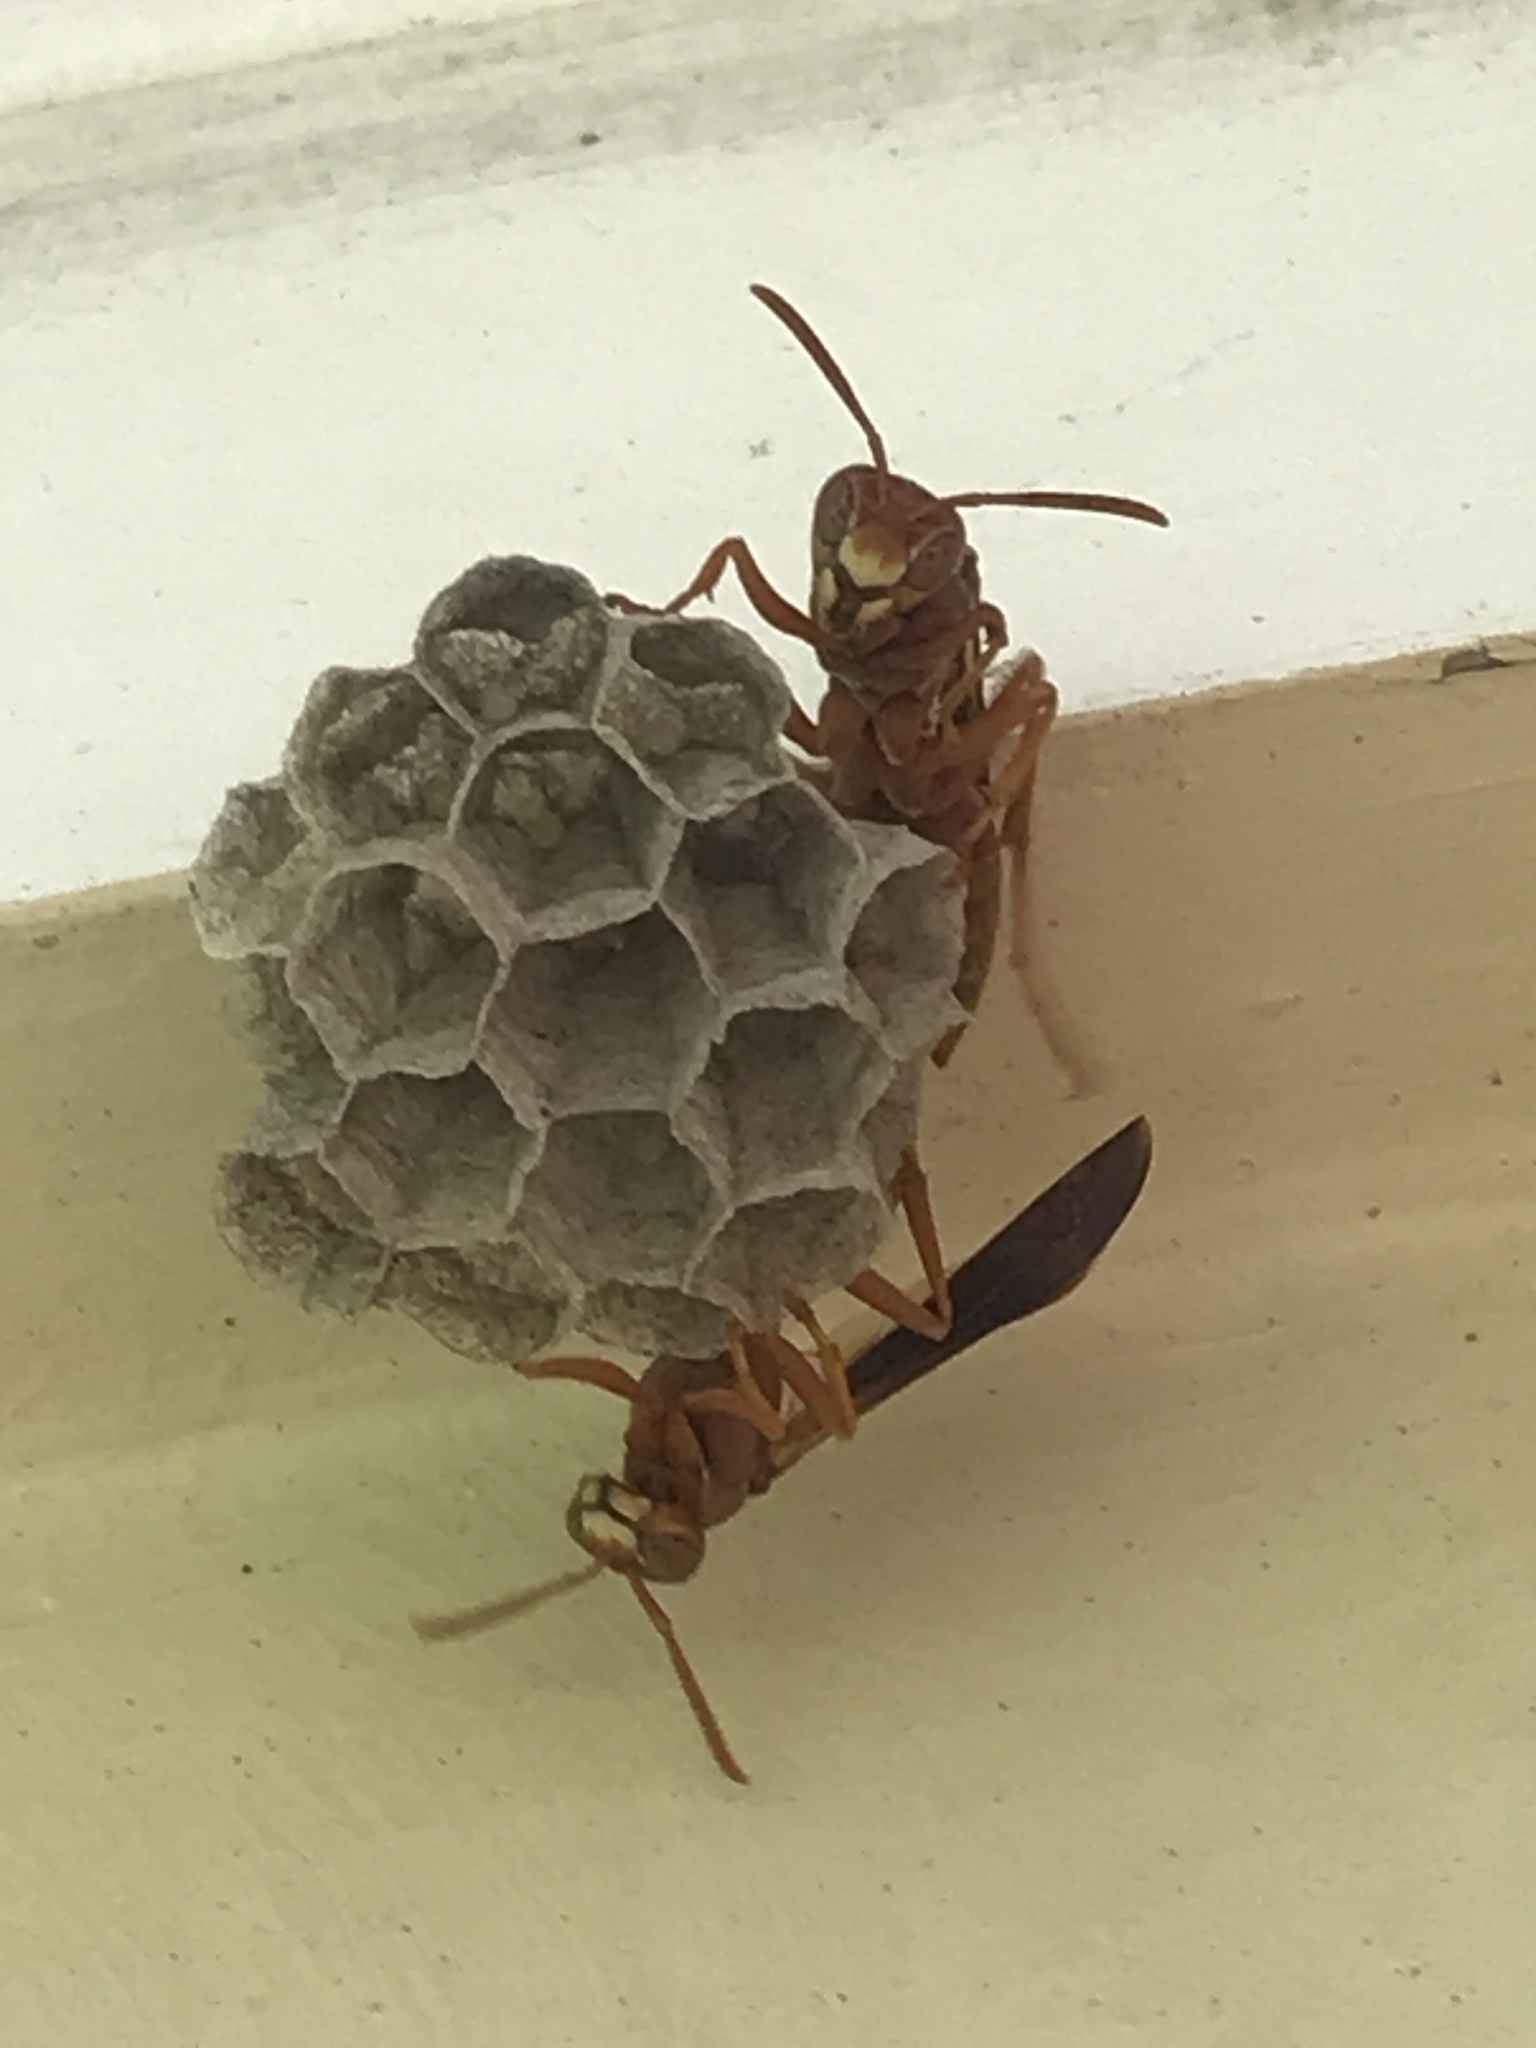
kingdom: Animalia
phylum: Arthropoda
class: Insecta
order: Hymenoptera
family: Eumenidae
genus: Polistes
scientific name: Polistes bellicosus
